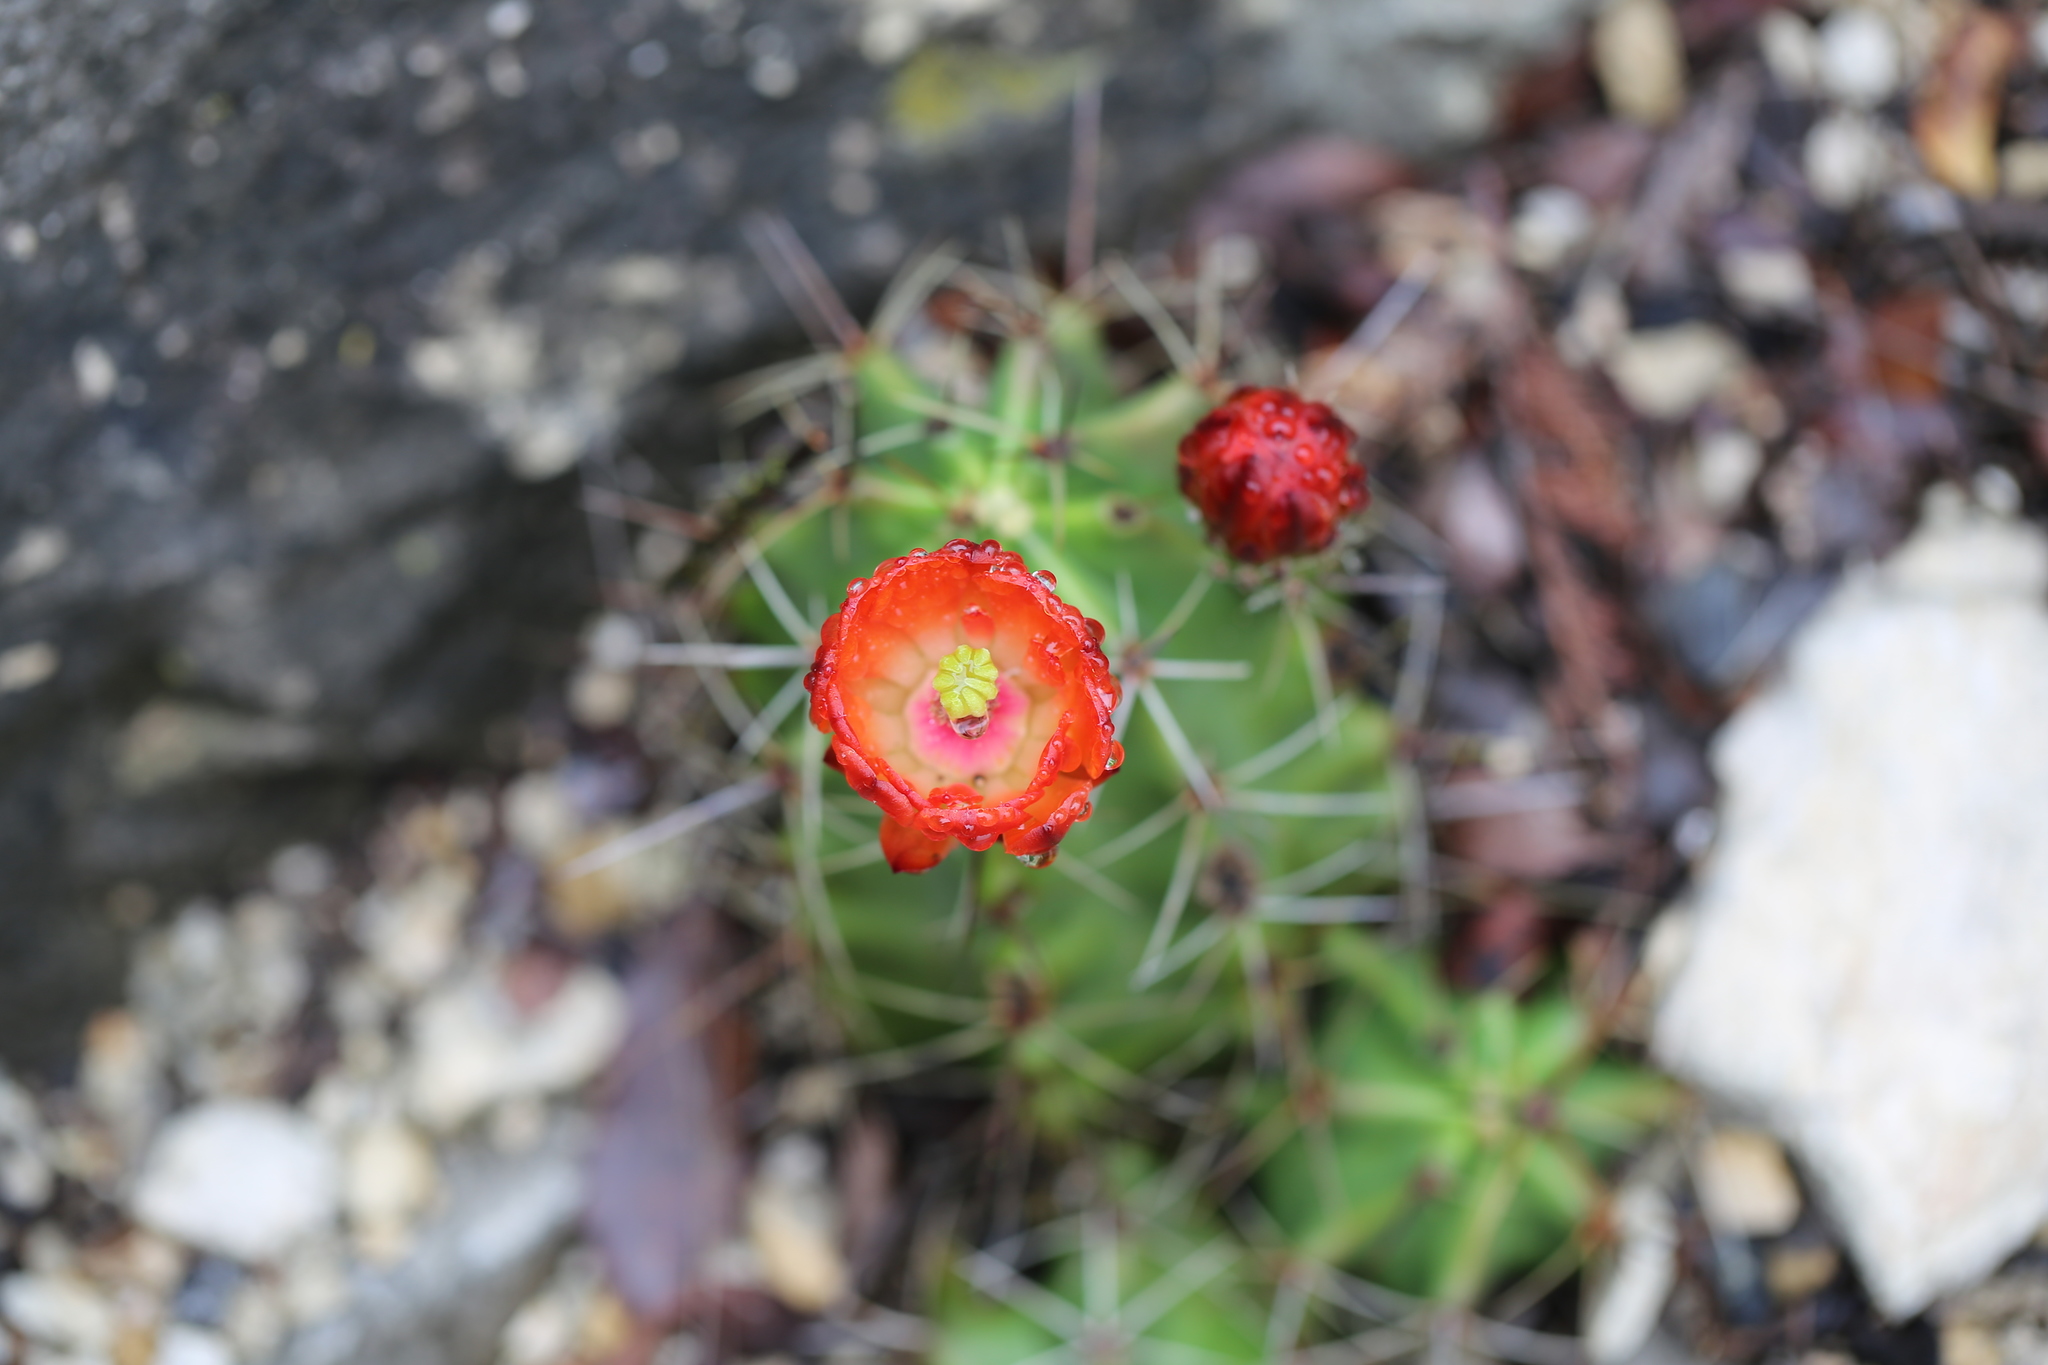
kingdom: Plantae
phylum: Tracheophyta
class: Magnoliopsida
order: Caryophyllales
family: Cactaceae
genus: Echinocereus
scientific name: Echinocereus coccineus
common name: Scarlet hedgehog cactus
